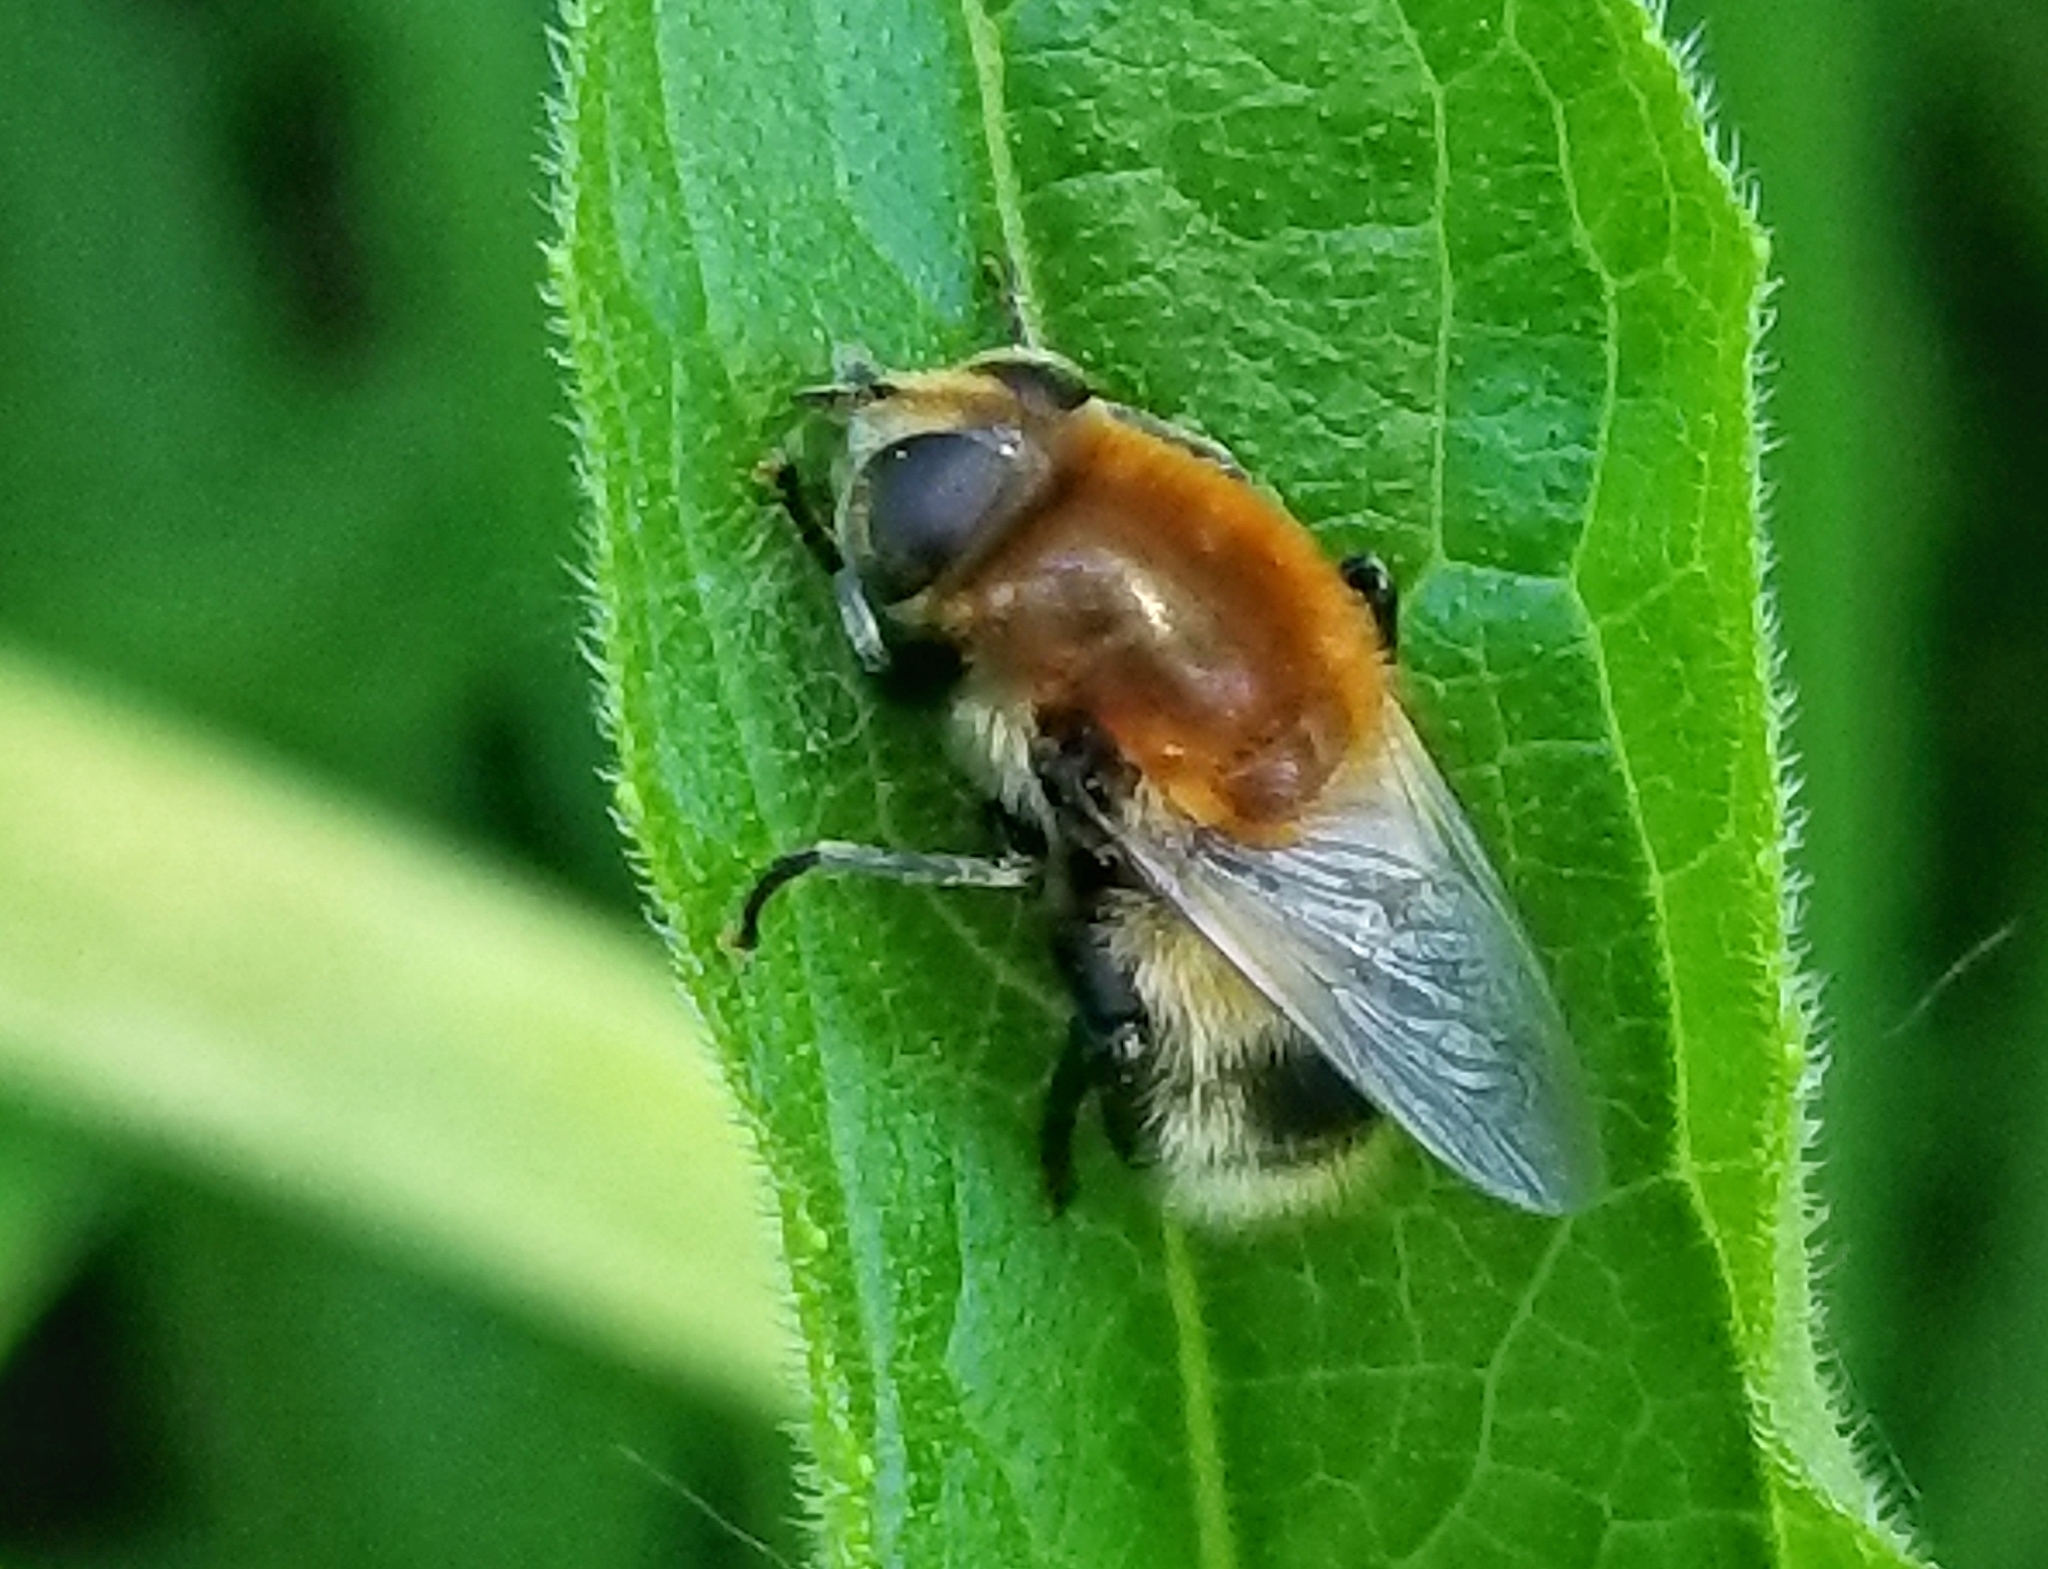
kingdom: Animalia
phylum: Arthropoda
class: Insecta
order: Diptera
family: Syrphidae
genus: Merodon
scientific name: Merodon equestris
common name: Greater bulb-fly
